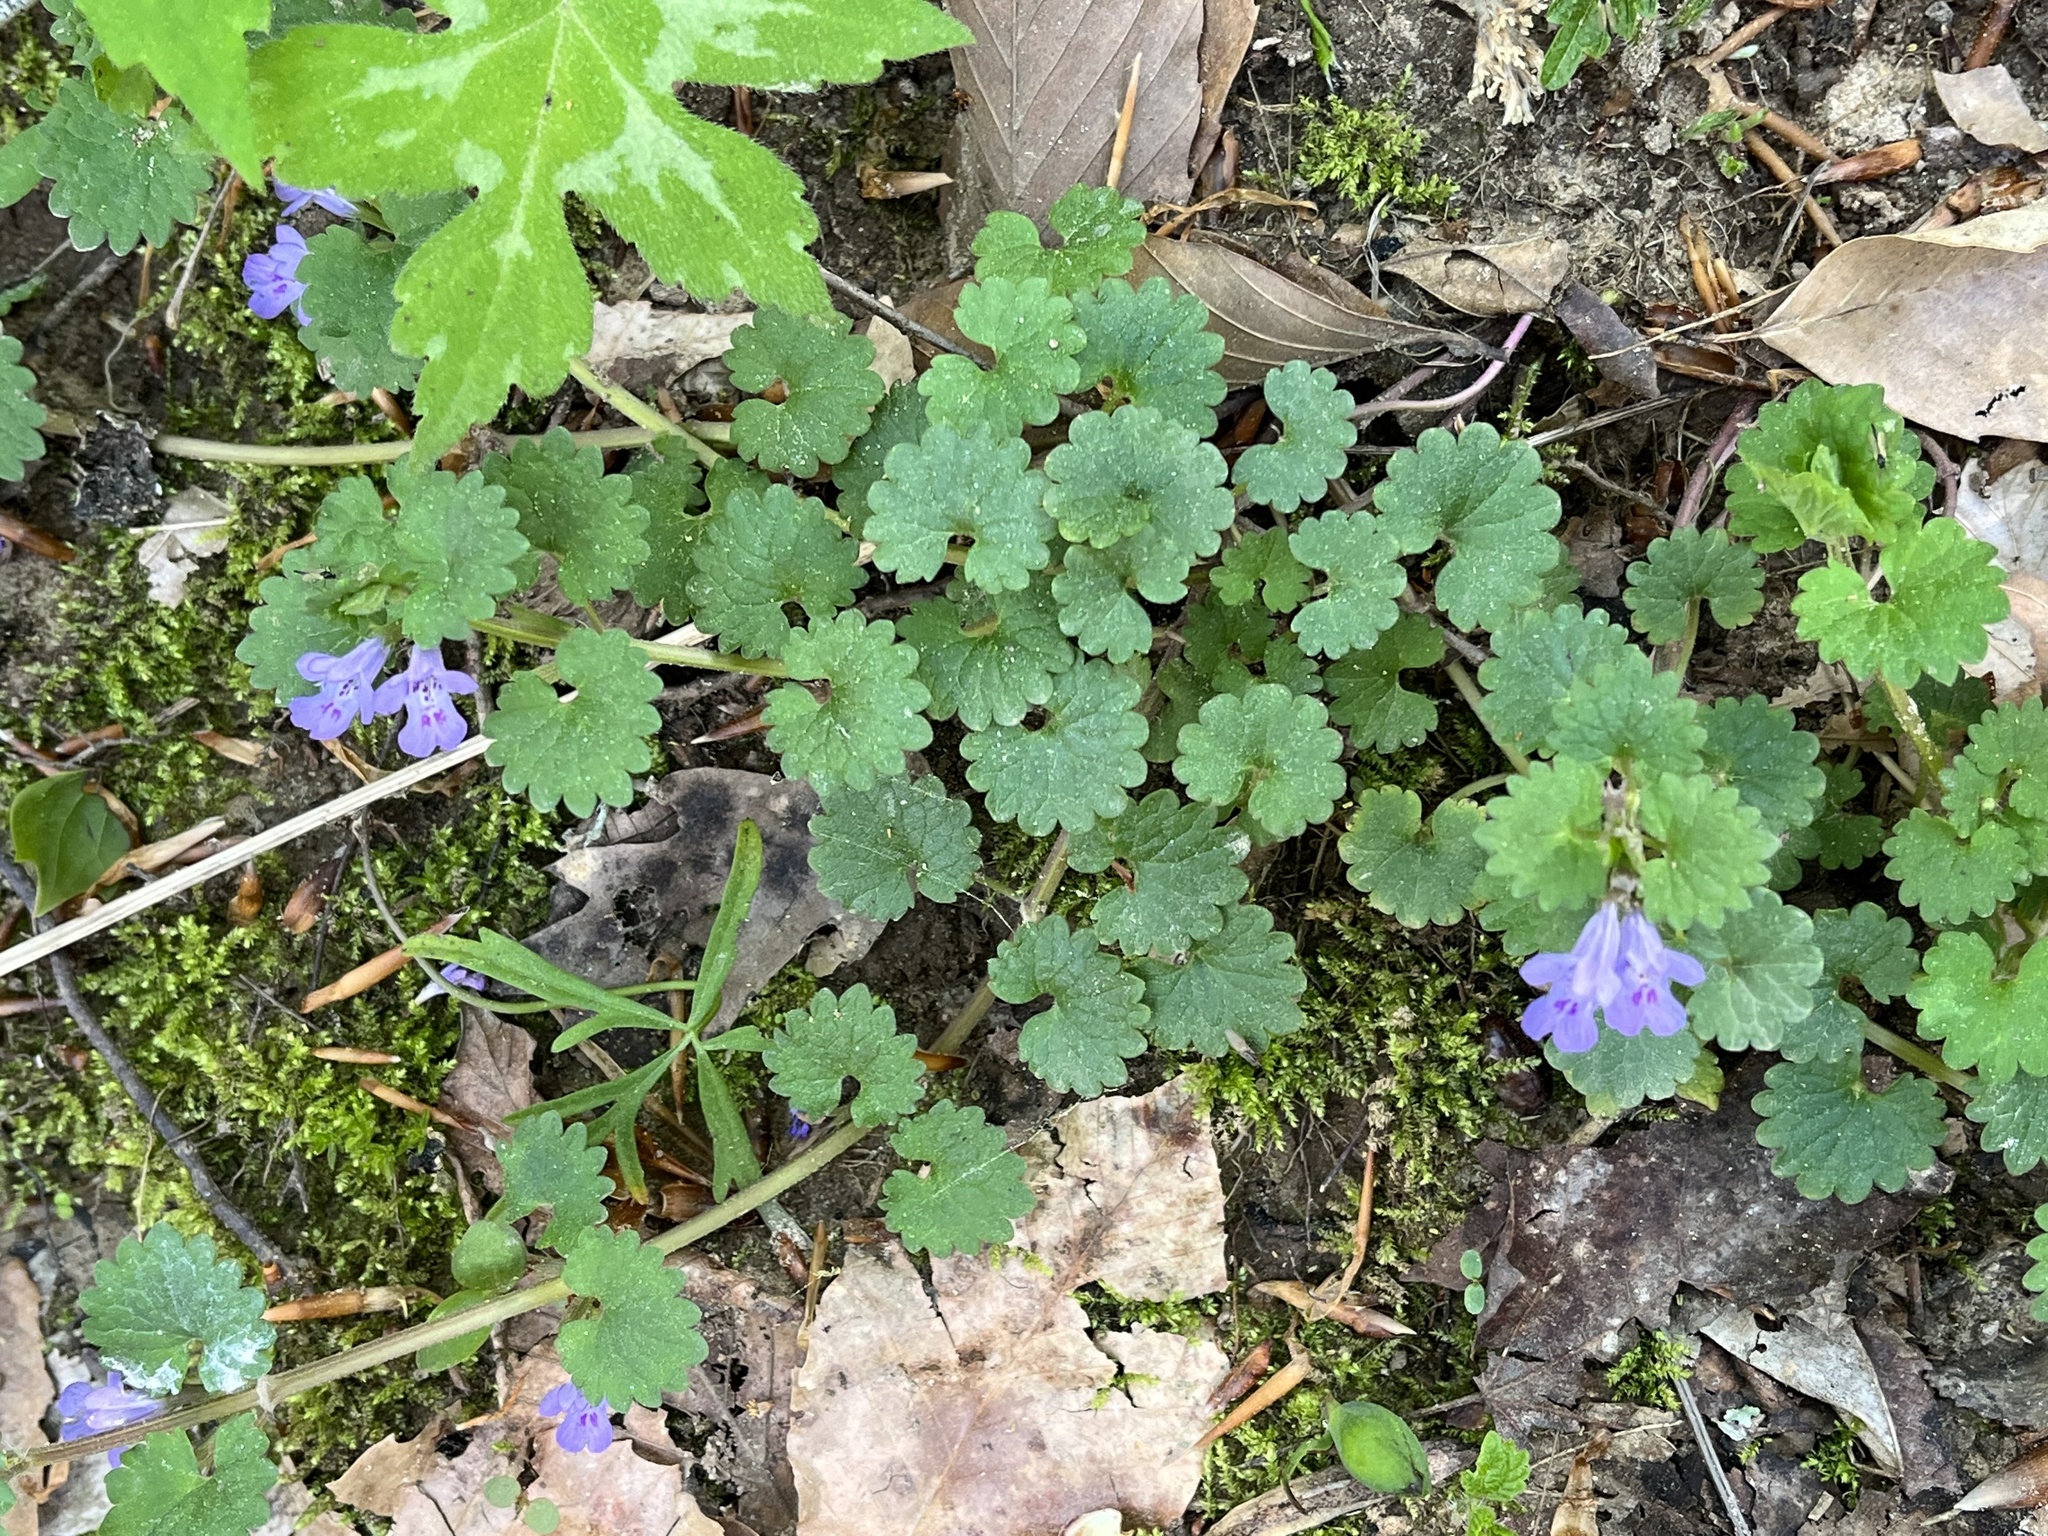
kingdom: Plantae
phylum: Tracheophyta
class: Magnoliopsida
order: Lamiales
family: Lamiaceae
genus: Glechoma
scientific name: Glechoma hederacea
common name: Ground ivy
